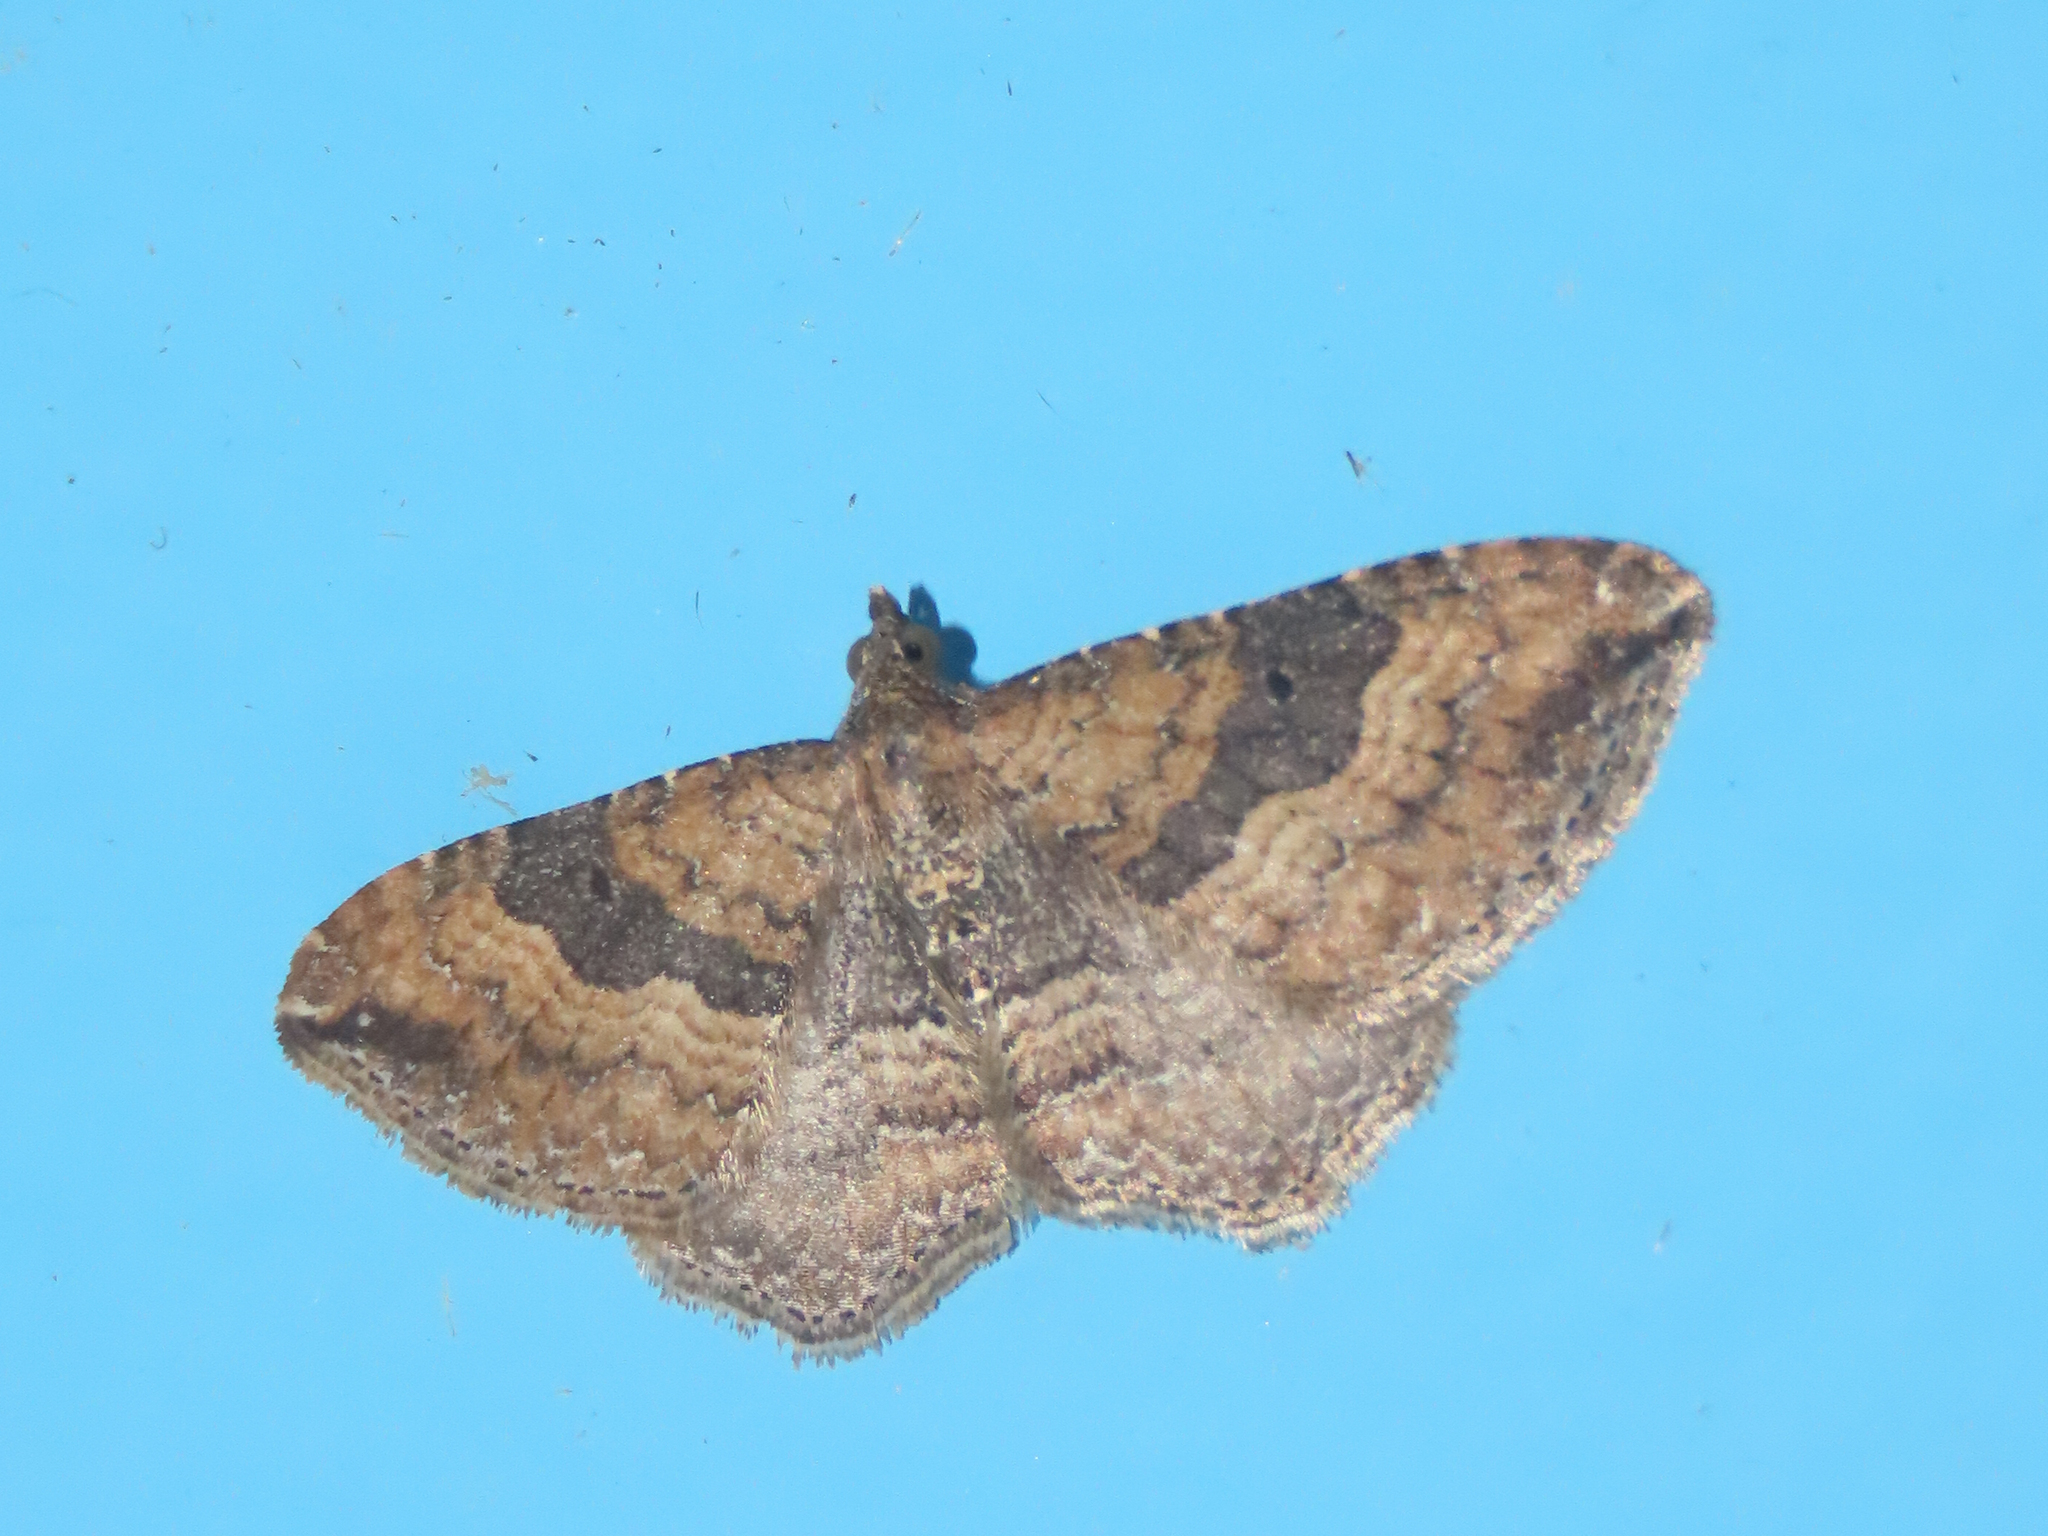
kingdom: Animalia
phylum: Arthropoda
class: Insecta
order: Lepidoptera
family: Geometridae
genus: Orthonama
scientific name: Orthonama obstipata
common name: The gem
